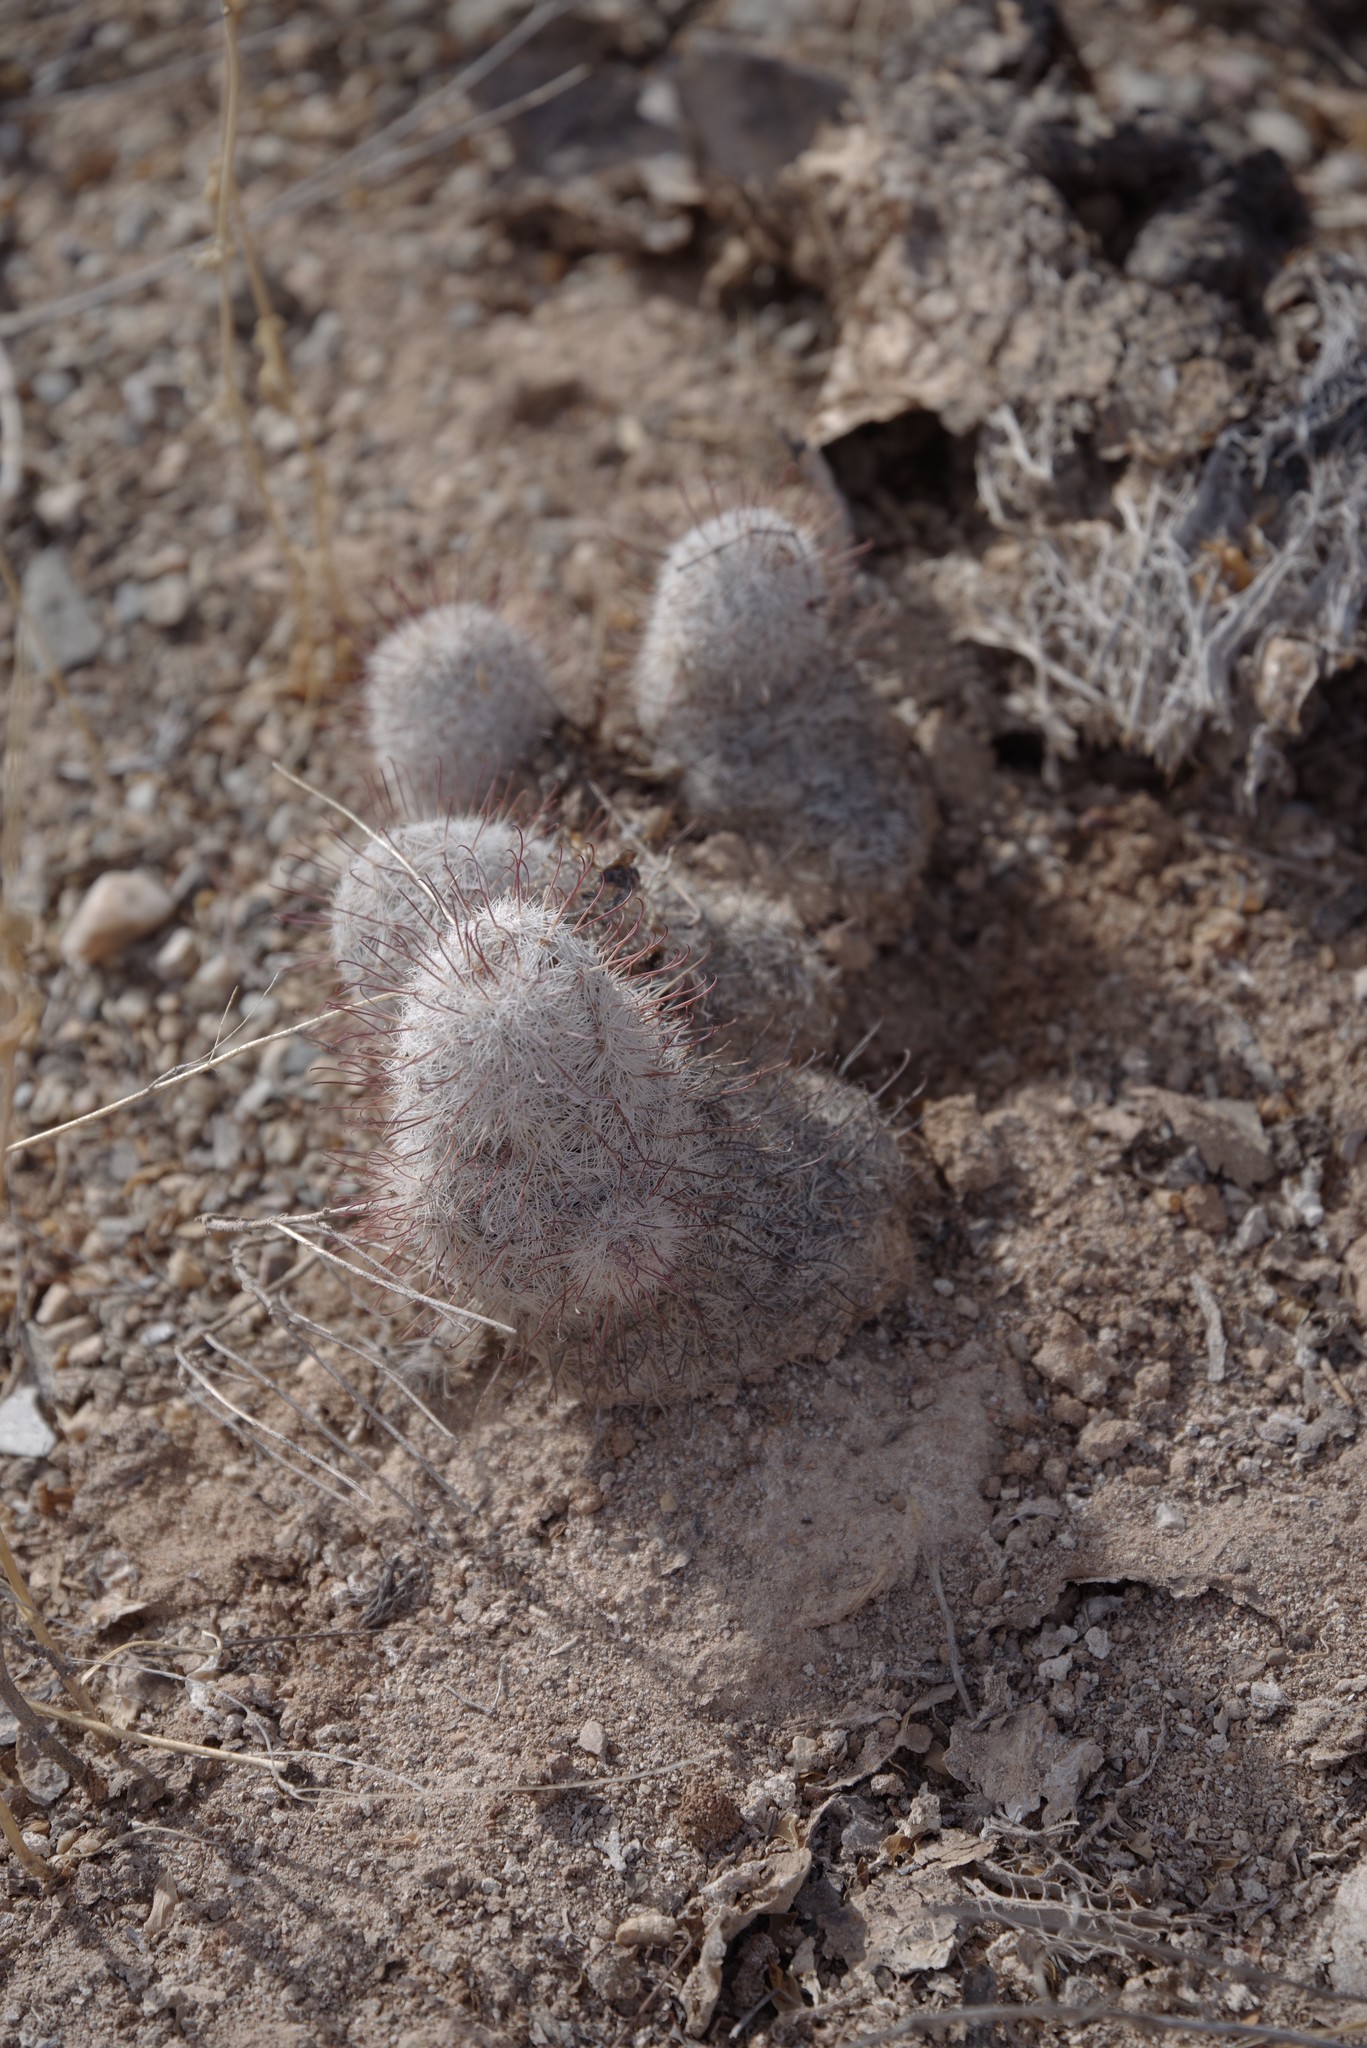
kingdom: Plantae
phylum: Tracheophyta
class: Magnoliopsida
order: Caryophyllales
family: Cactaceae
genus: Cochemiea
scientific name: Cochemiea grahamii
